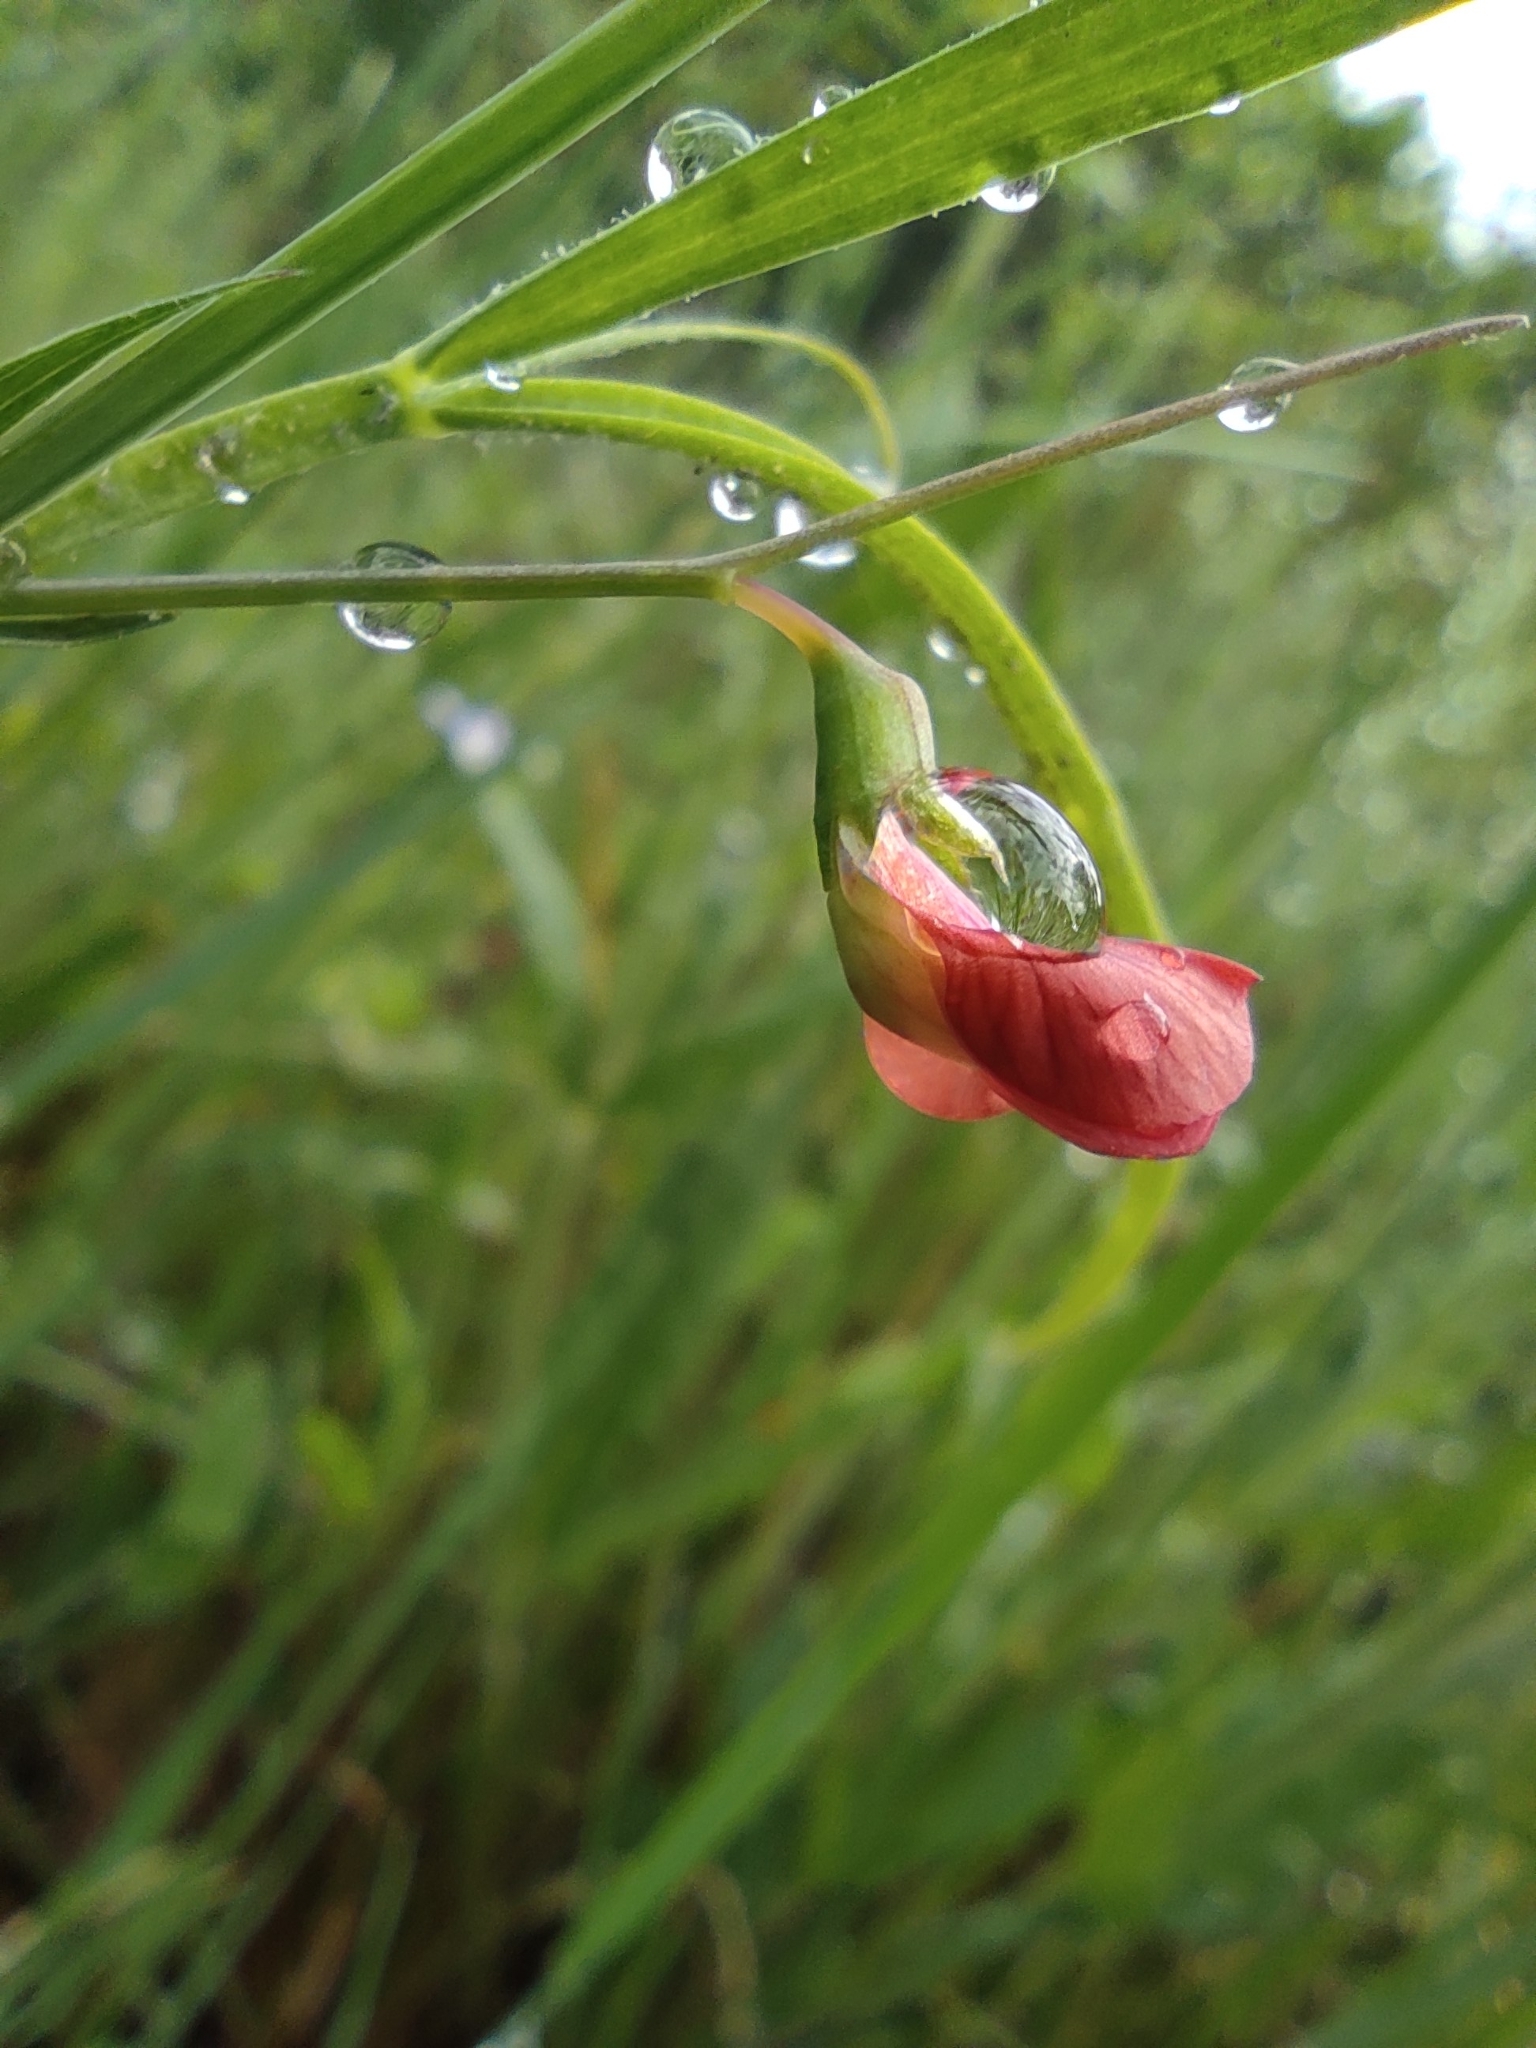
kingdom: Plantae
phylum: Tracheophyta
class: Magnoliopsida
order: Fabales
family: Fabaceae
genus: Lathyrus
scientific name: Lathyrus cicera
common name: Red vetchling
